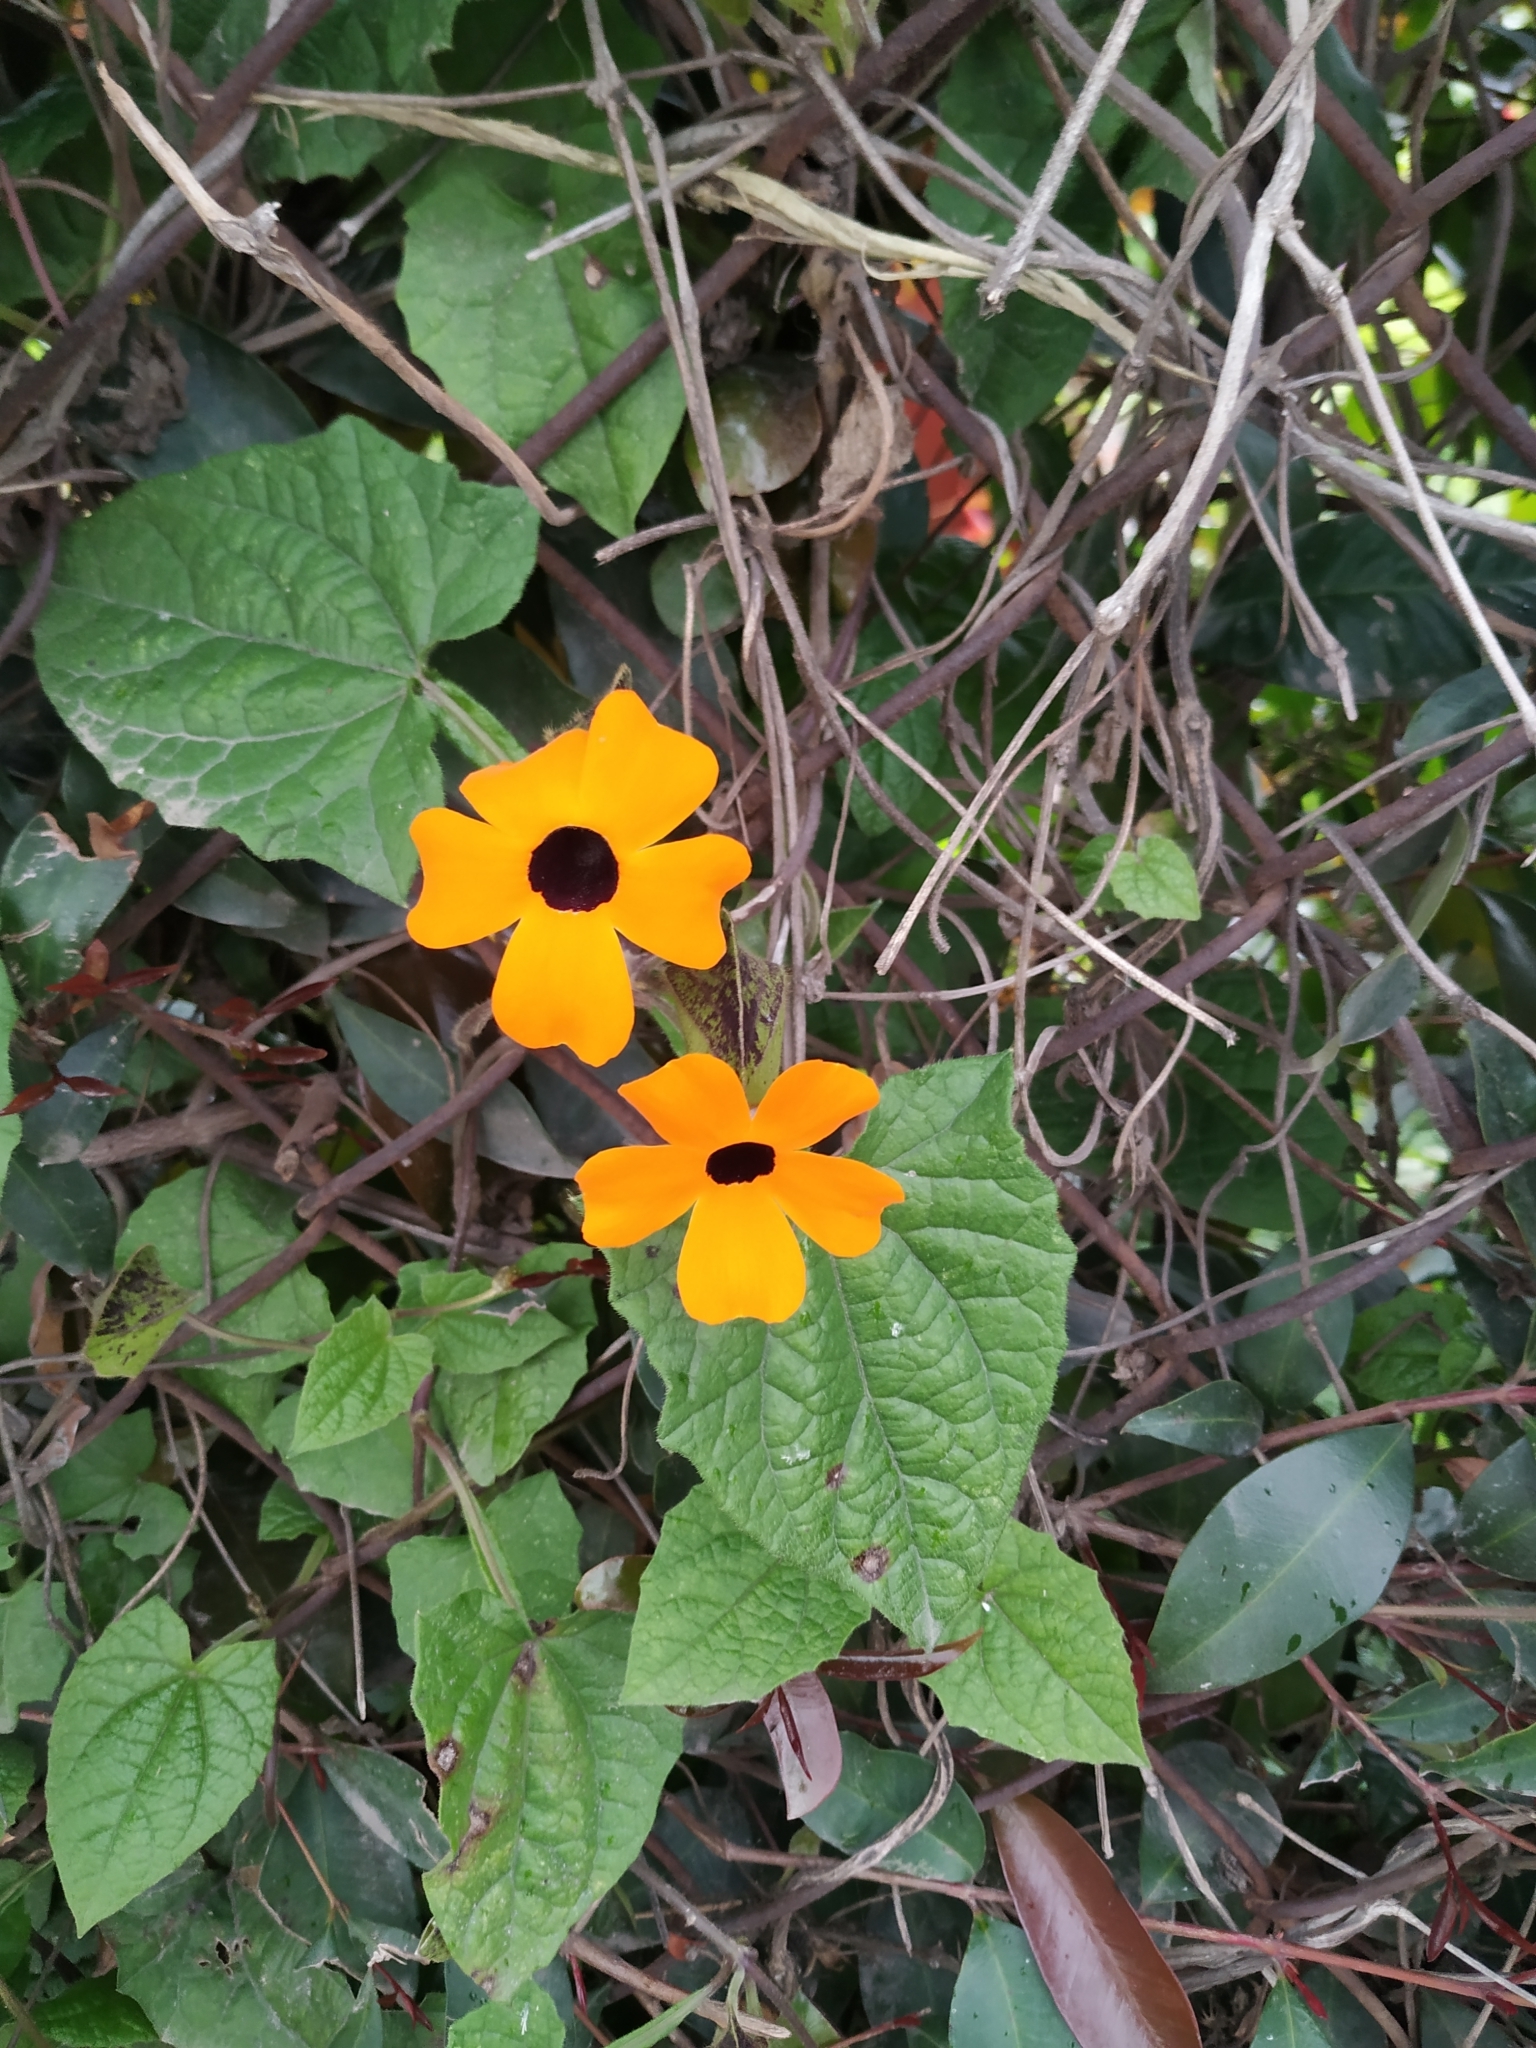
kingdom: Plantae
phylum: Tracheophyta
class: Magnoliopsida
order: Lamiales
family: Acanthaceae
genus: Thunbergia
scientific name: Thunbergia alata
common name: Blackeyed susan vine
